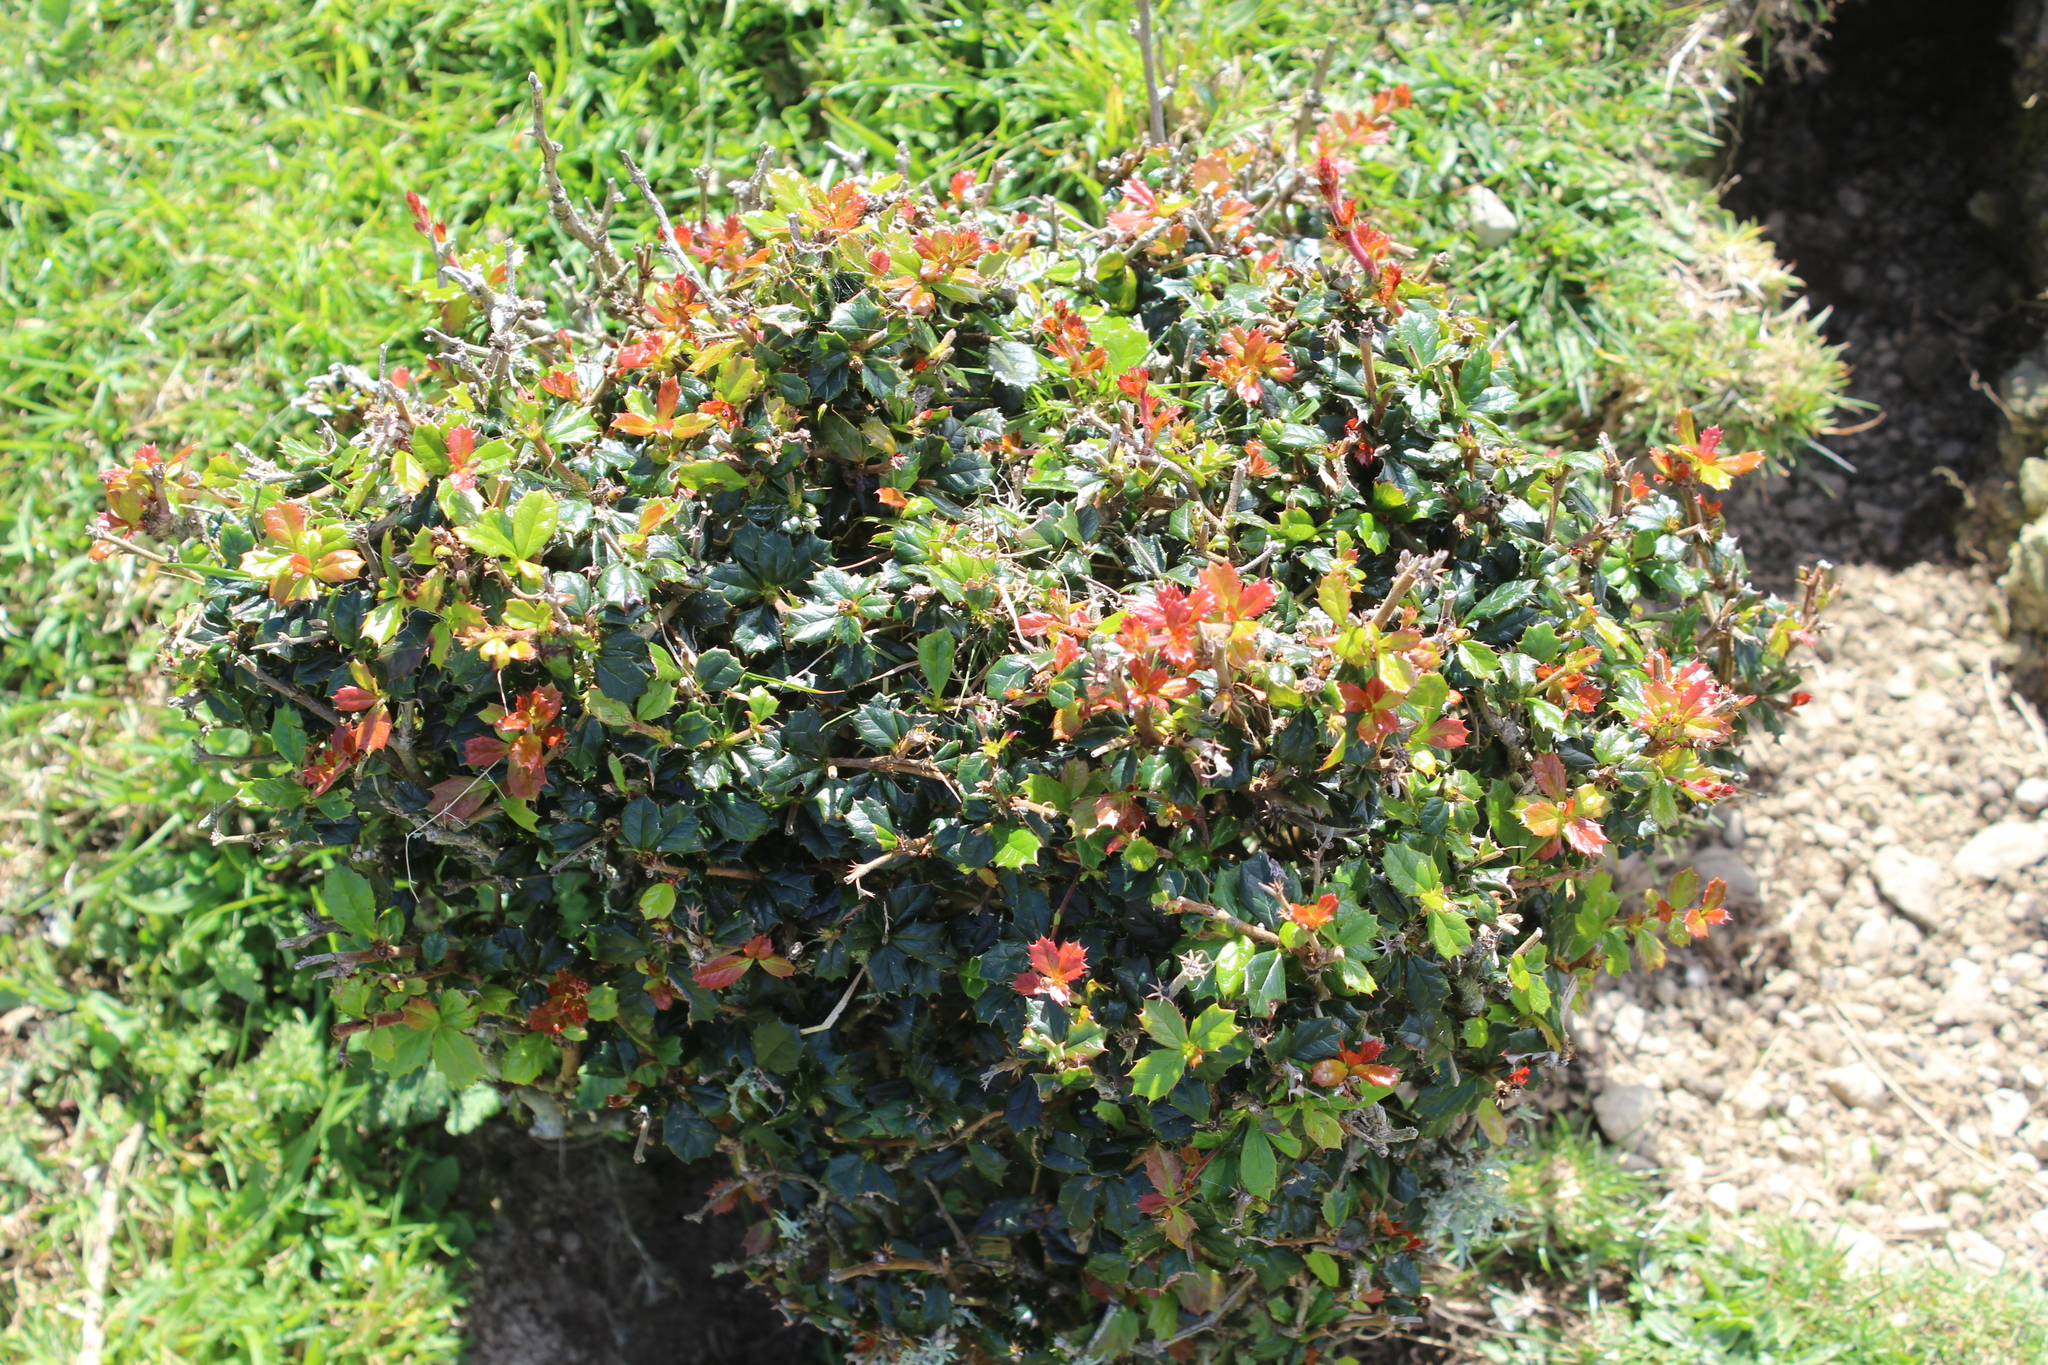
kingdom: Plantae
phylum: Tracheophyta
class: Magnoliopsida
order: Ranunculales
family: Berberidaceae
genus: Berberis
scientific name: Berberis darwinii
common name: Darwin's barberry
